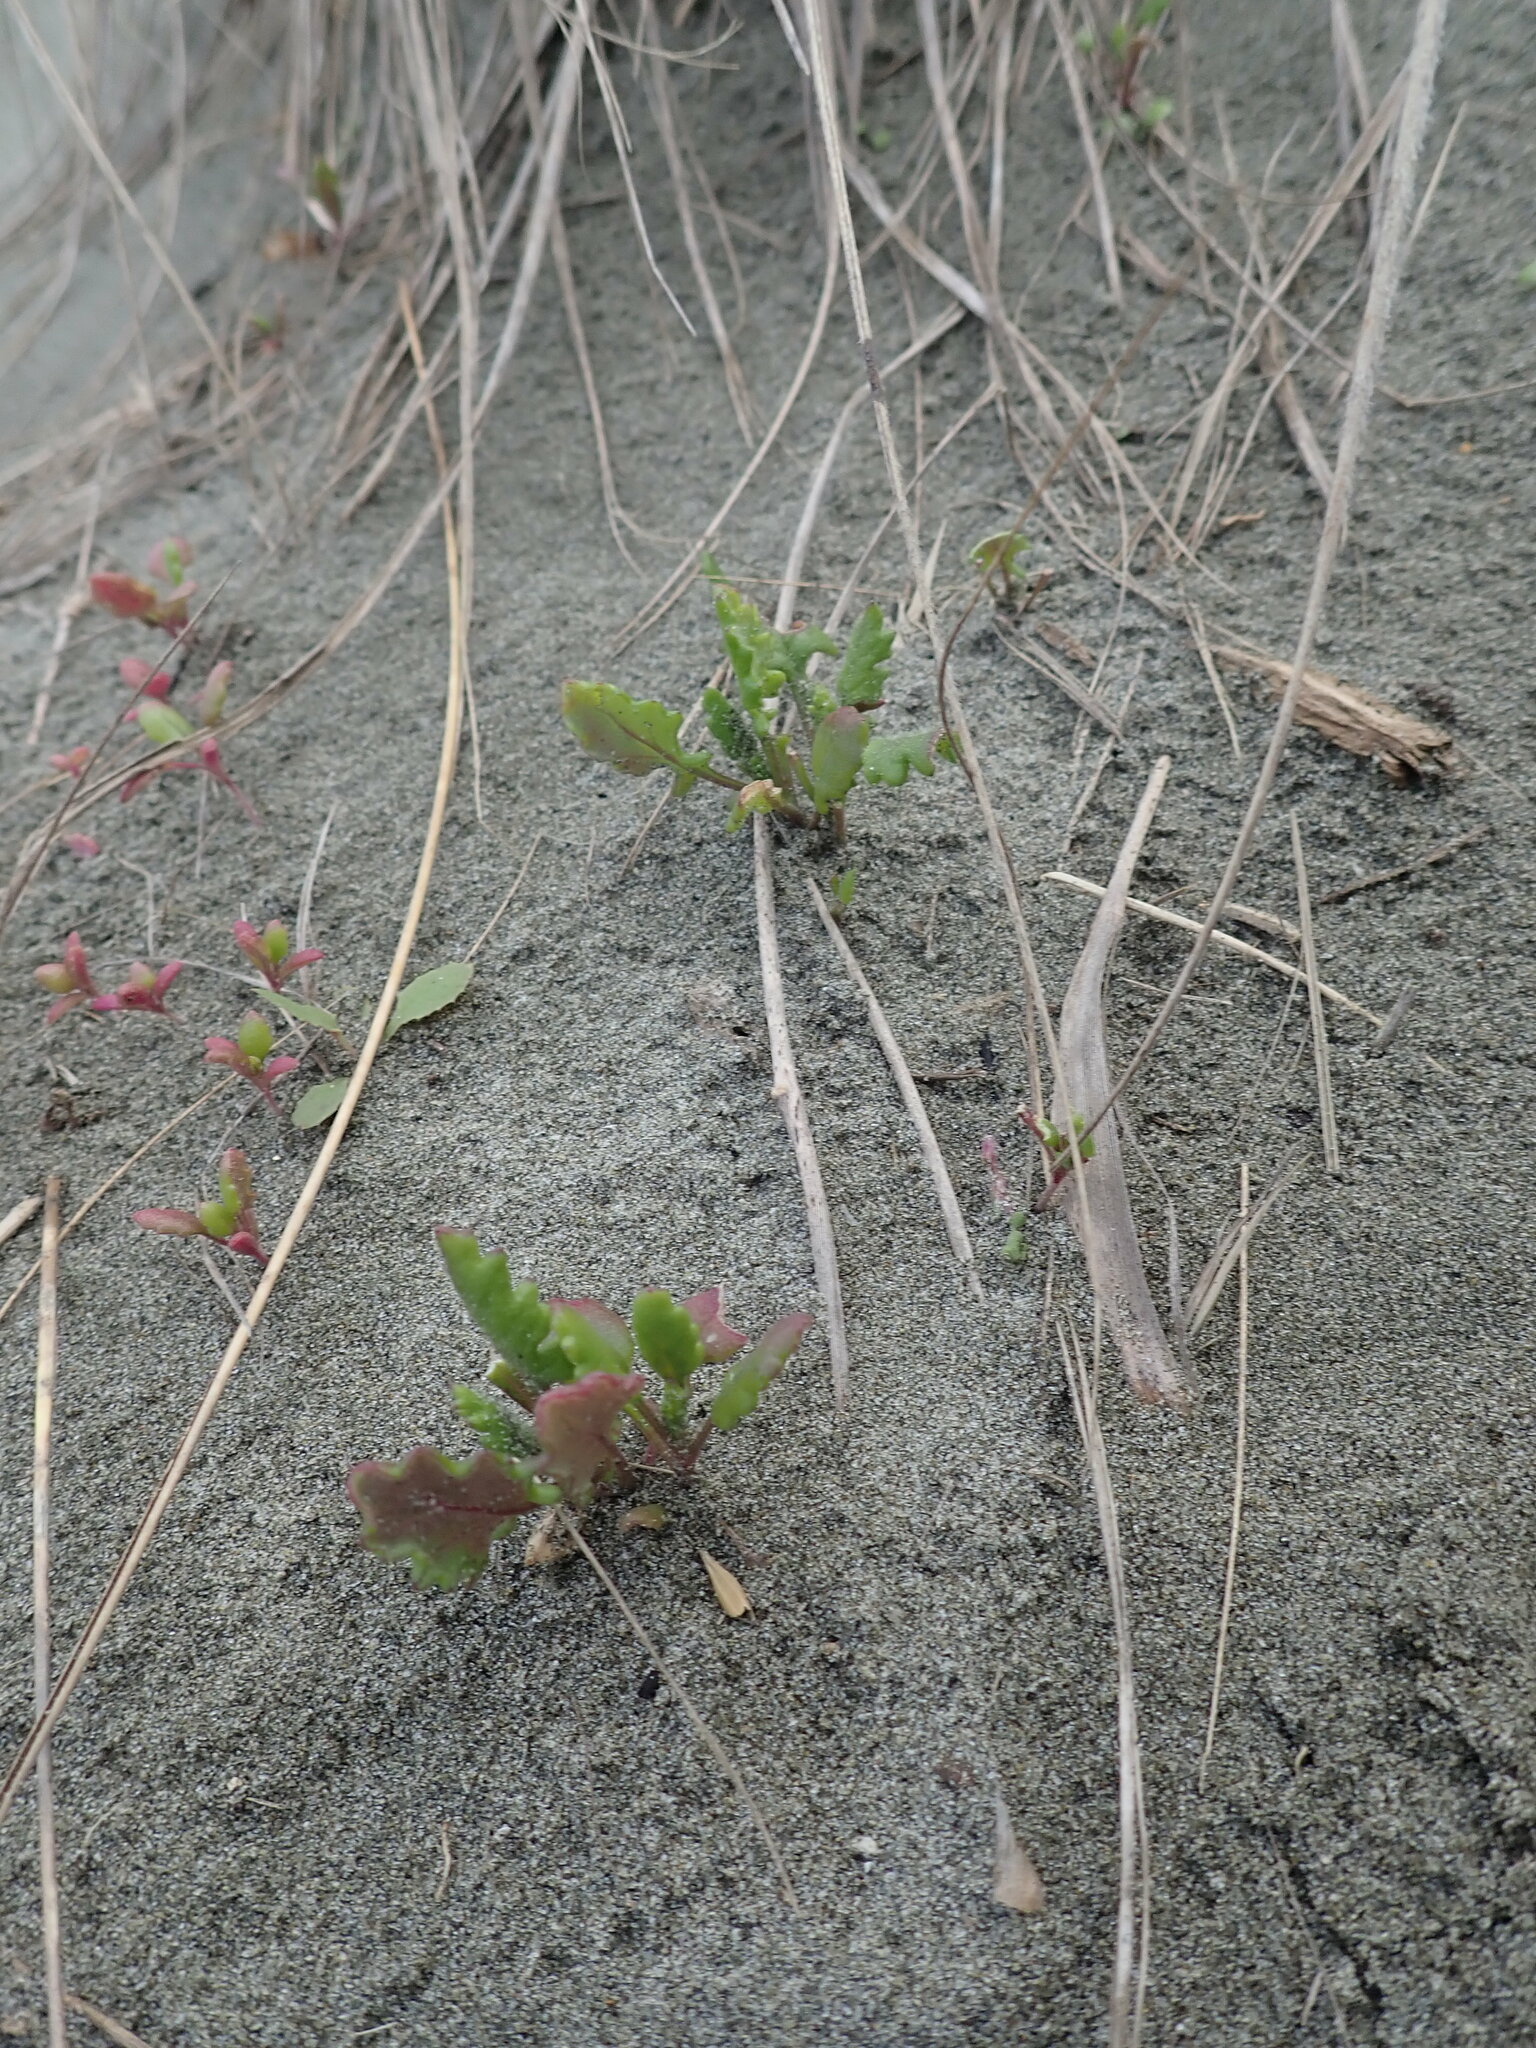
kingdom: Plantae
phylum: Tracheophyta
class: Magnoliopsida
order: Asterales
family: Asteraceae
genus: Senecio
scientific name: Senecio elegans
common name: Purple groundsel
